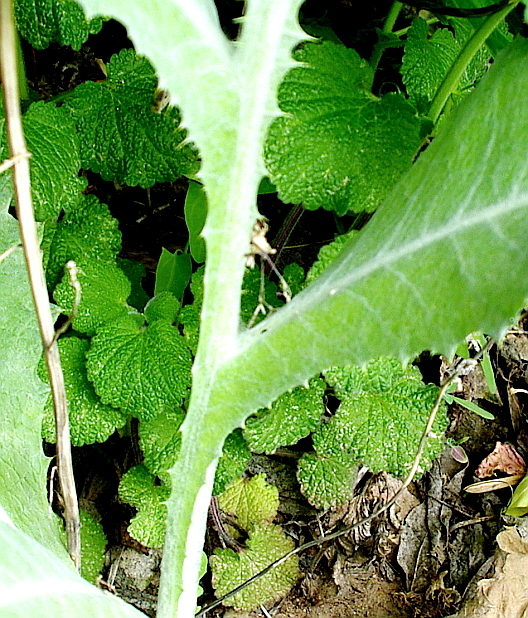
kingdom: Plantae
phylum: Tracheophyta
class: Magnoliopsida
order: Lamiales
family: Lamiaceae
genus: Ballota
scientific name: Ballota nigra
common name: Black horehound
